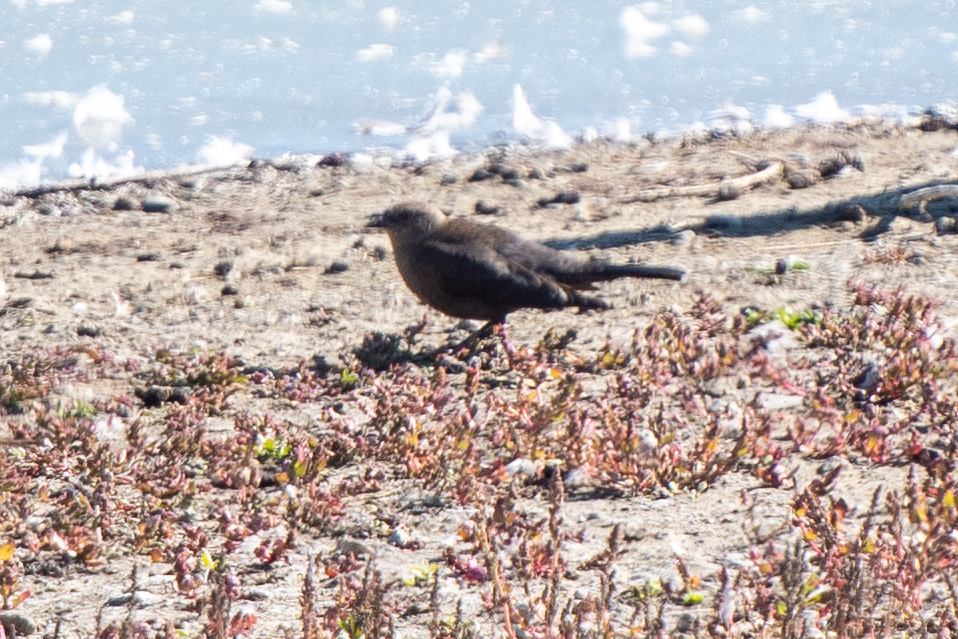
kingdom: Animalia
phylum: Chordata
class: Aves
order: Passeriformes
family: Icteridae
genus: Euphagus
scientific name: Euphagus cyanocephalus
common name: Brewer's blackbird
